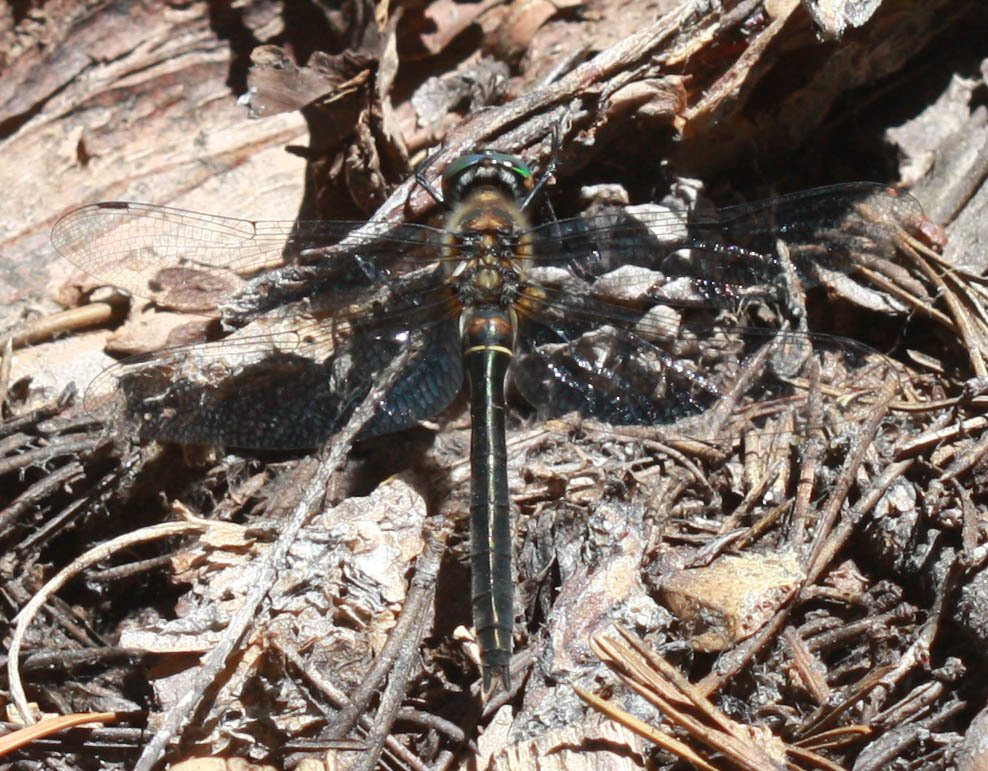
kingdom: Animalia
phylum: Arthropoda
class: Insecta
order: Odonata
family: Corduliidae
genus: Cordulia
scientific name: Cordulia shurtleffii
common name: American emerald
